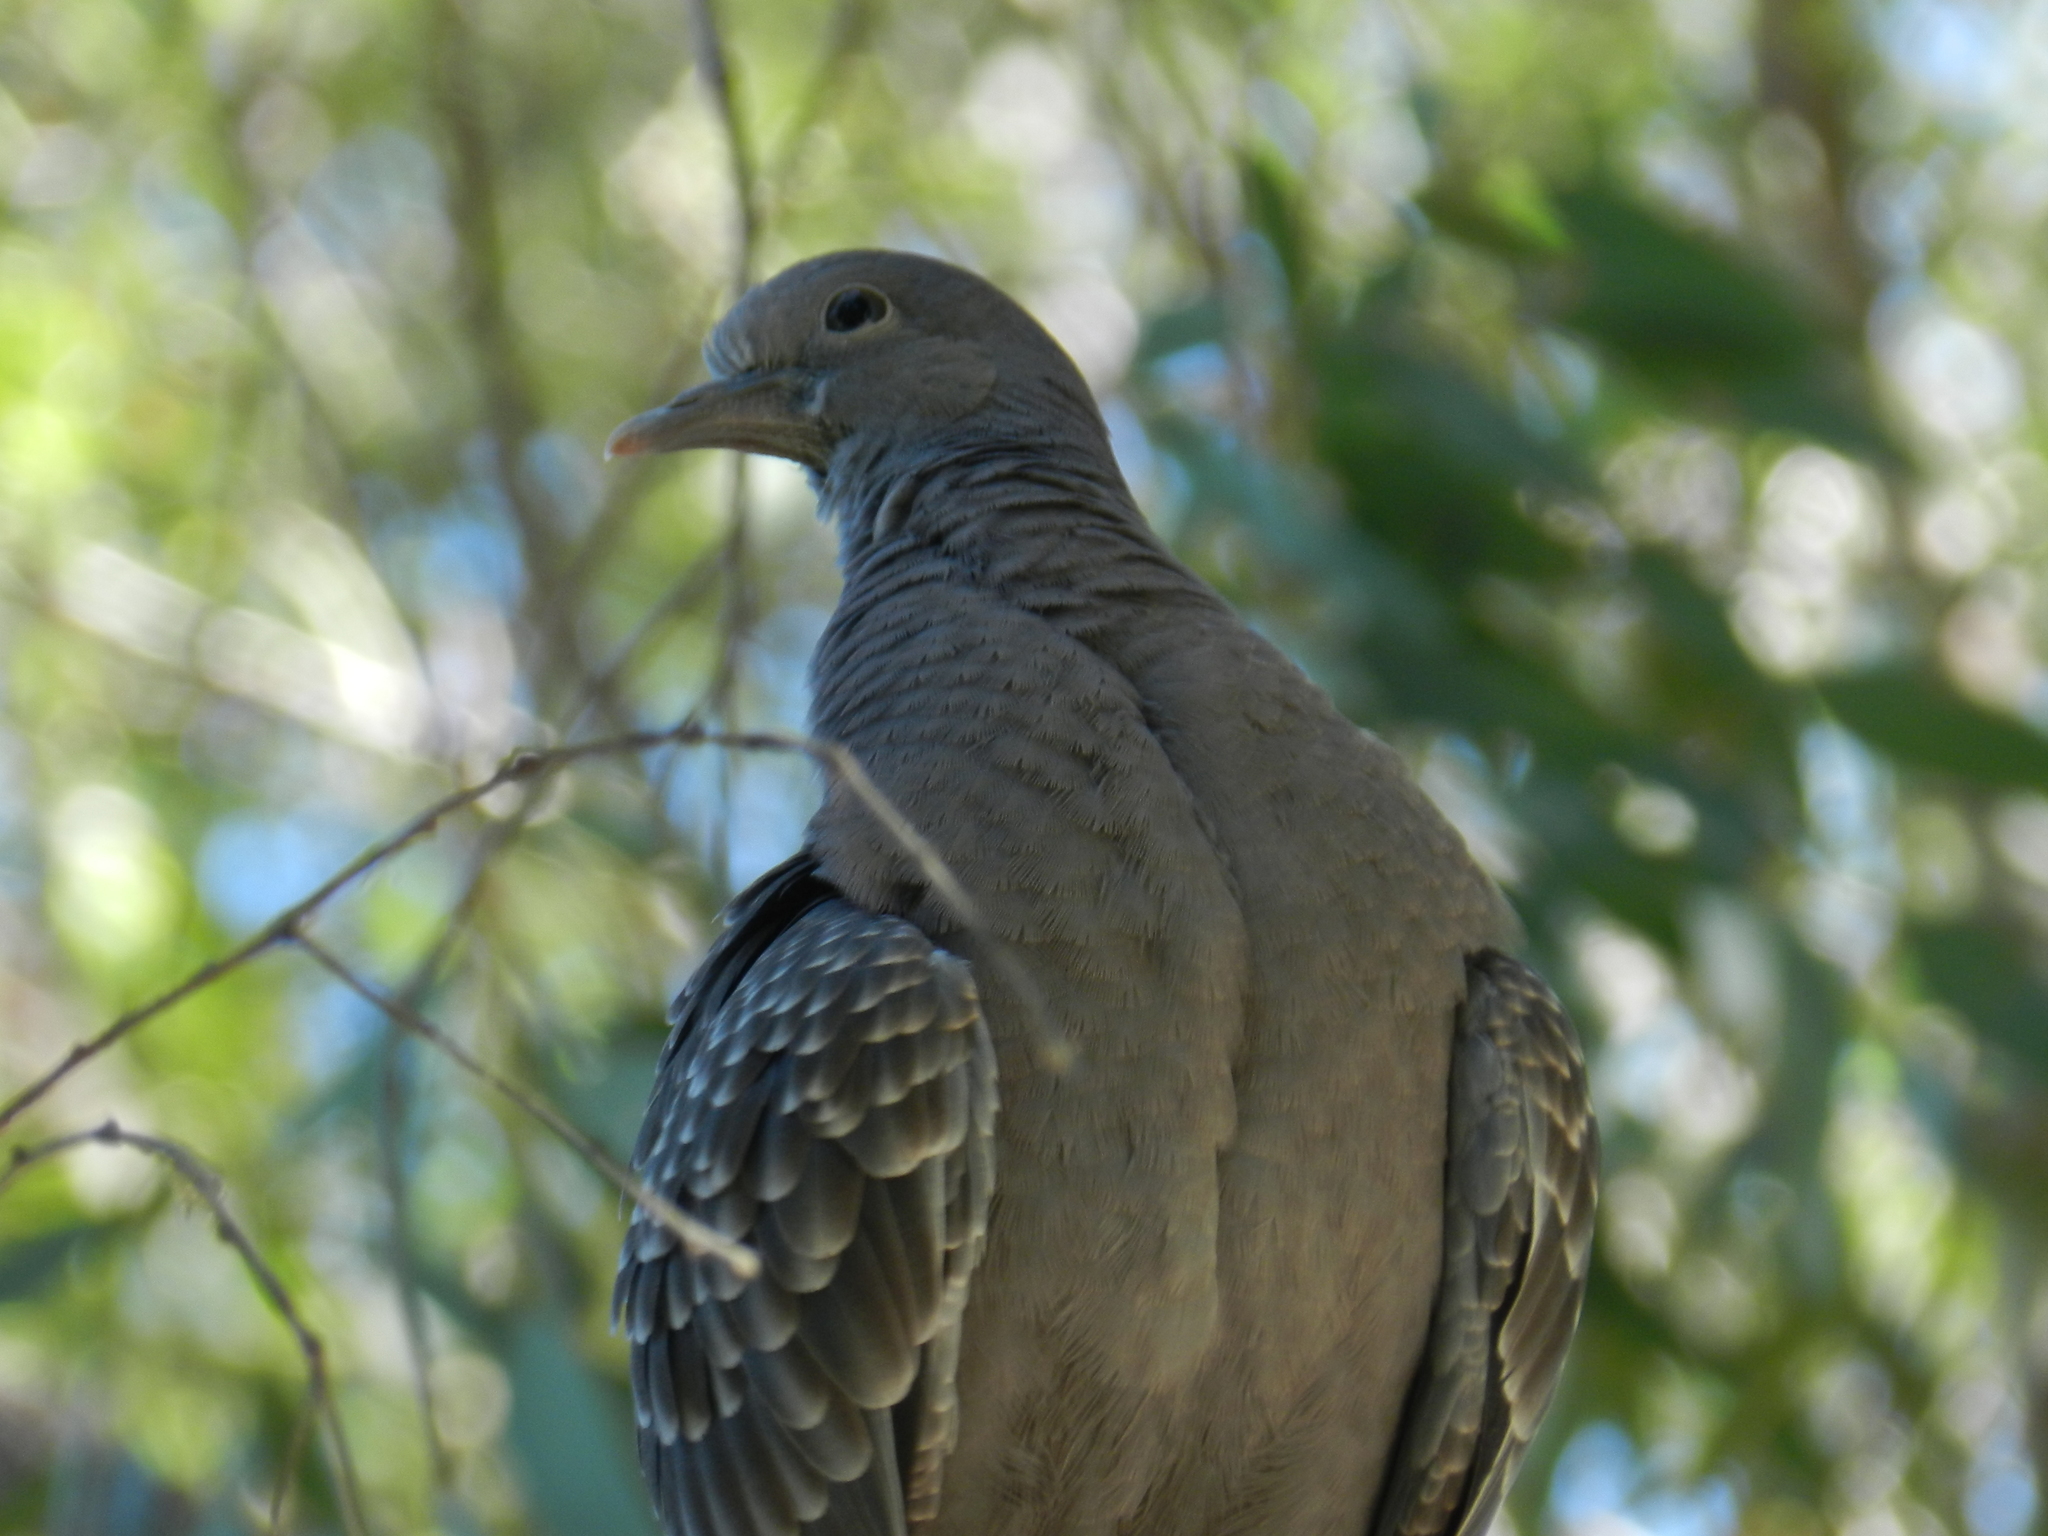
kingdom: Animalia
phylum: Chordata
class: Aves
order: Columbiformes
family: Columbidae
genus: Patagioenas
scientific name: Patagioenas maculosa
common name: Spot-winged pigeon
